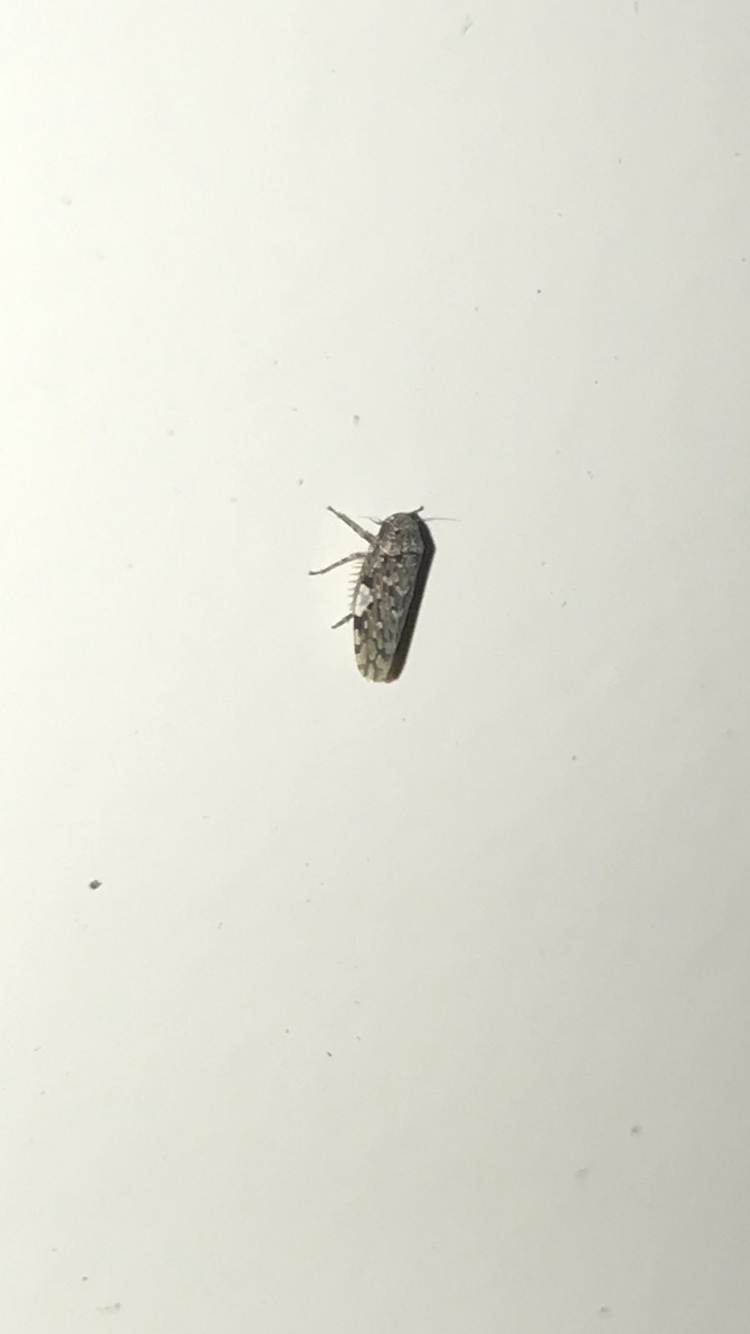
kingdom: Animalia
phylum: Arthropoda
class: Insecta
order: Hemiptera
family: Cicadellidae
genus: Xestocephalus
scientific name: Xestocephalus tessellatus
